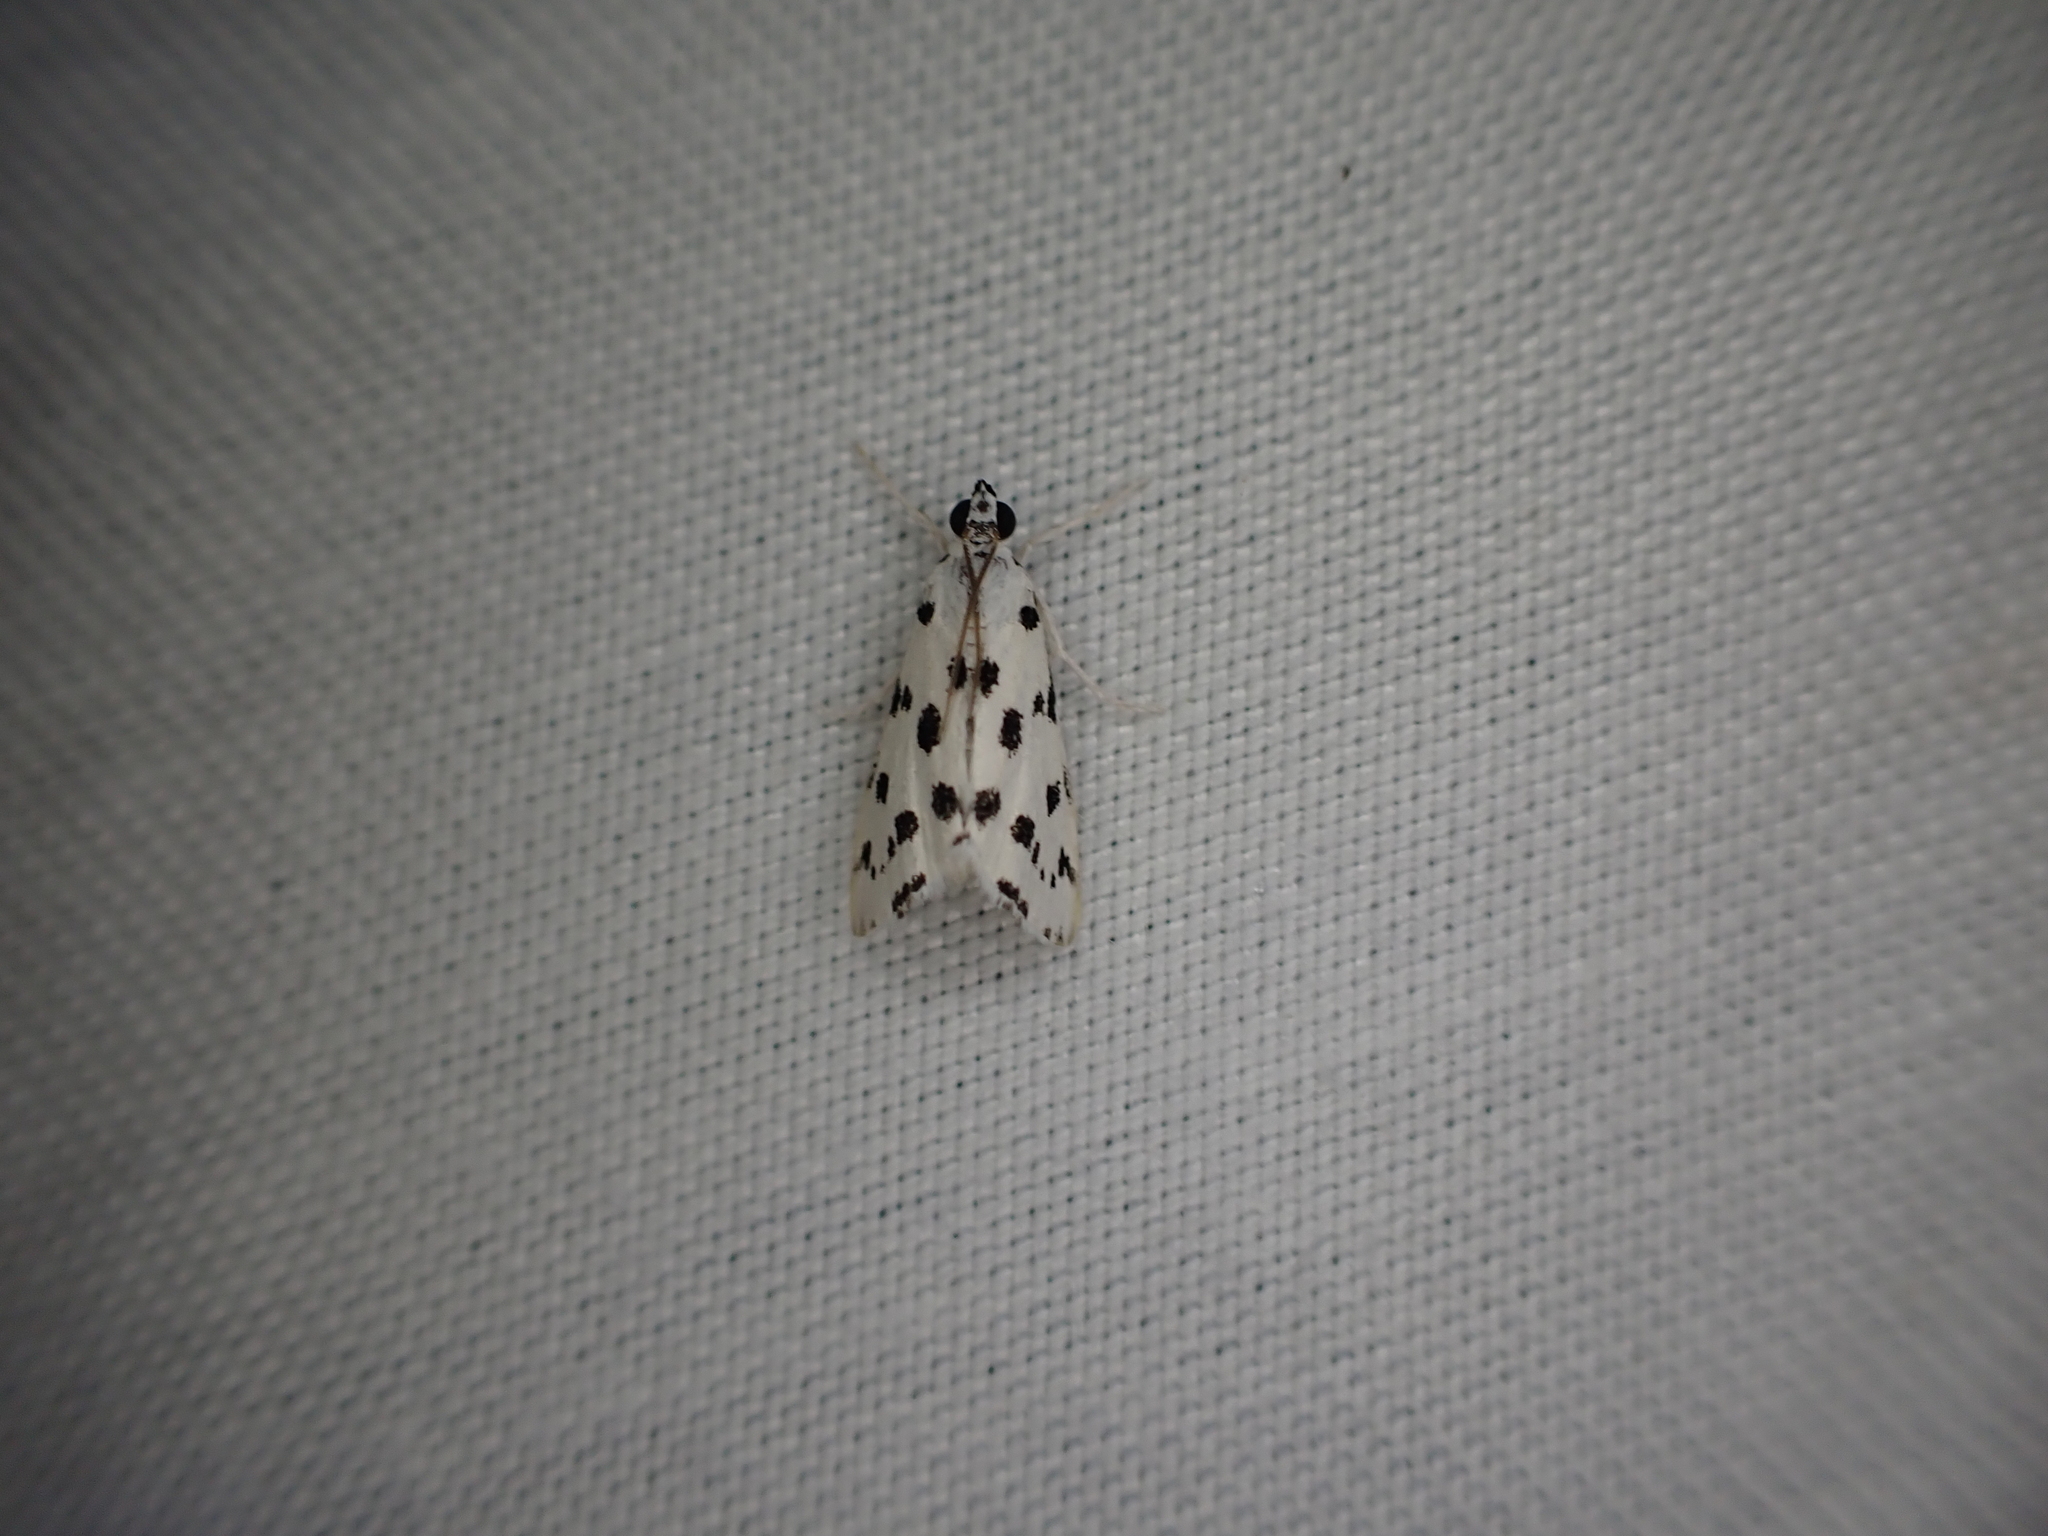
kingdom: Animalia
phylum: Arthropoda
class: Insecta
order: Lepidoptera
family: Crambidae
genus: Eustixia
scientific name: Eustixia pupula
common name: American cabbage pearl
